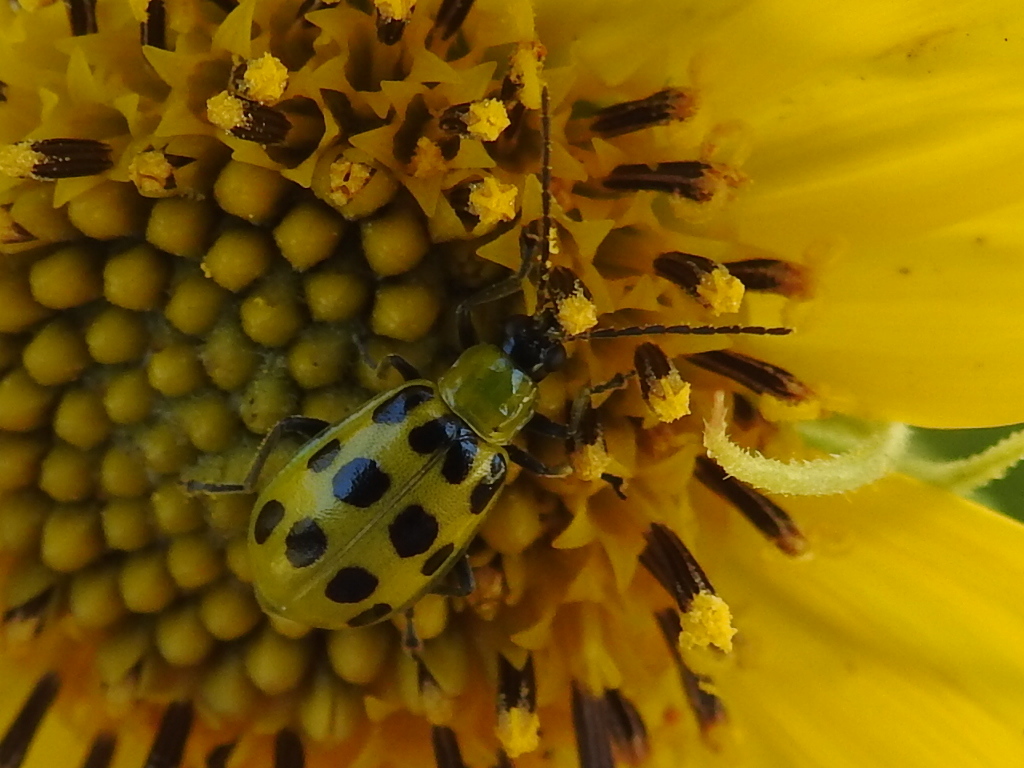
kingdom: Animalia
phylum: Arthropoda
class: Insecta
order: Coleoptera
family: Chrysomelidae
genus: Diabrotica
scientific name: Diabrotica undecimpunctata
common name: Spotted cucumber beetle
